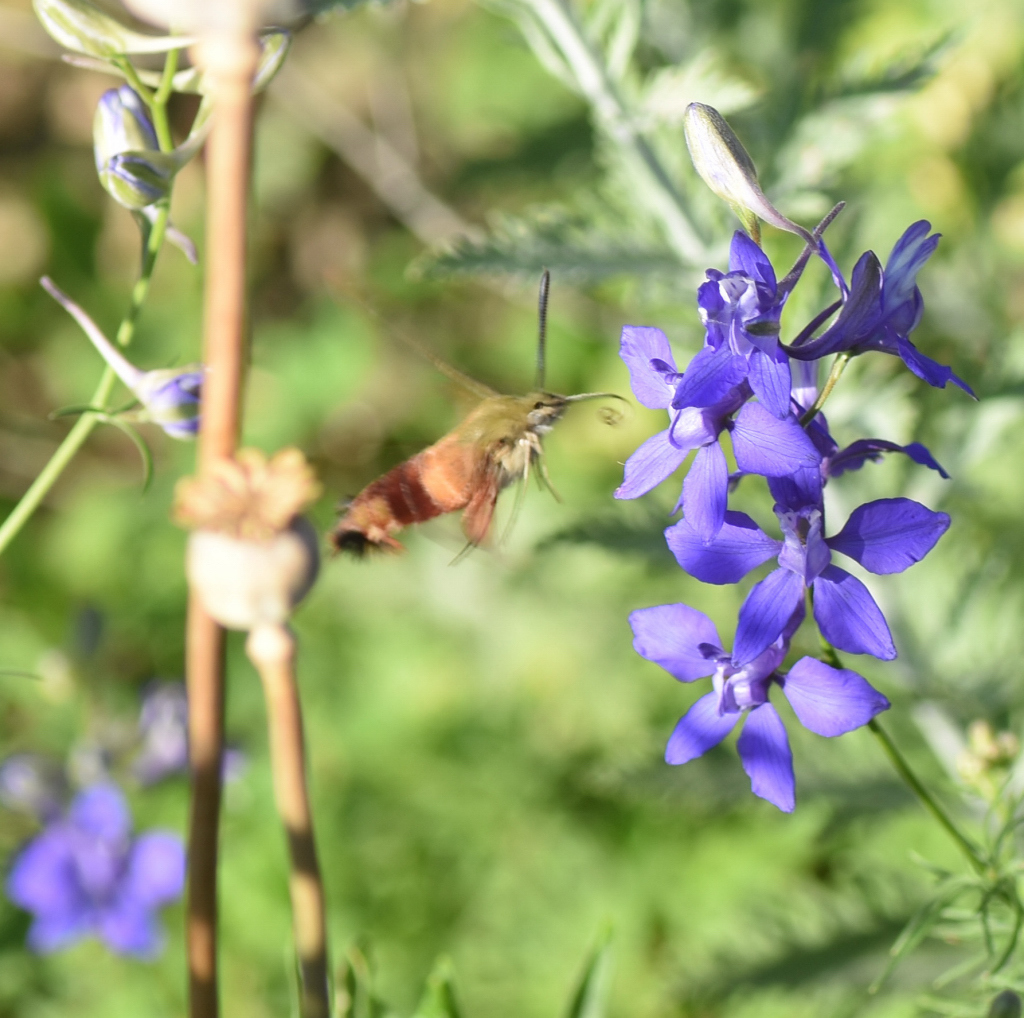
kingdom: Animalia
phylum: Arthropoda
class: Insecta
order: Lepidoptera
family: Sphingidae
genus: Hemaris
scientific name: Hemaris thysbe
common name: Common clear-wing
